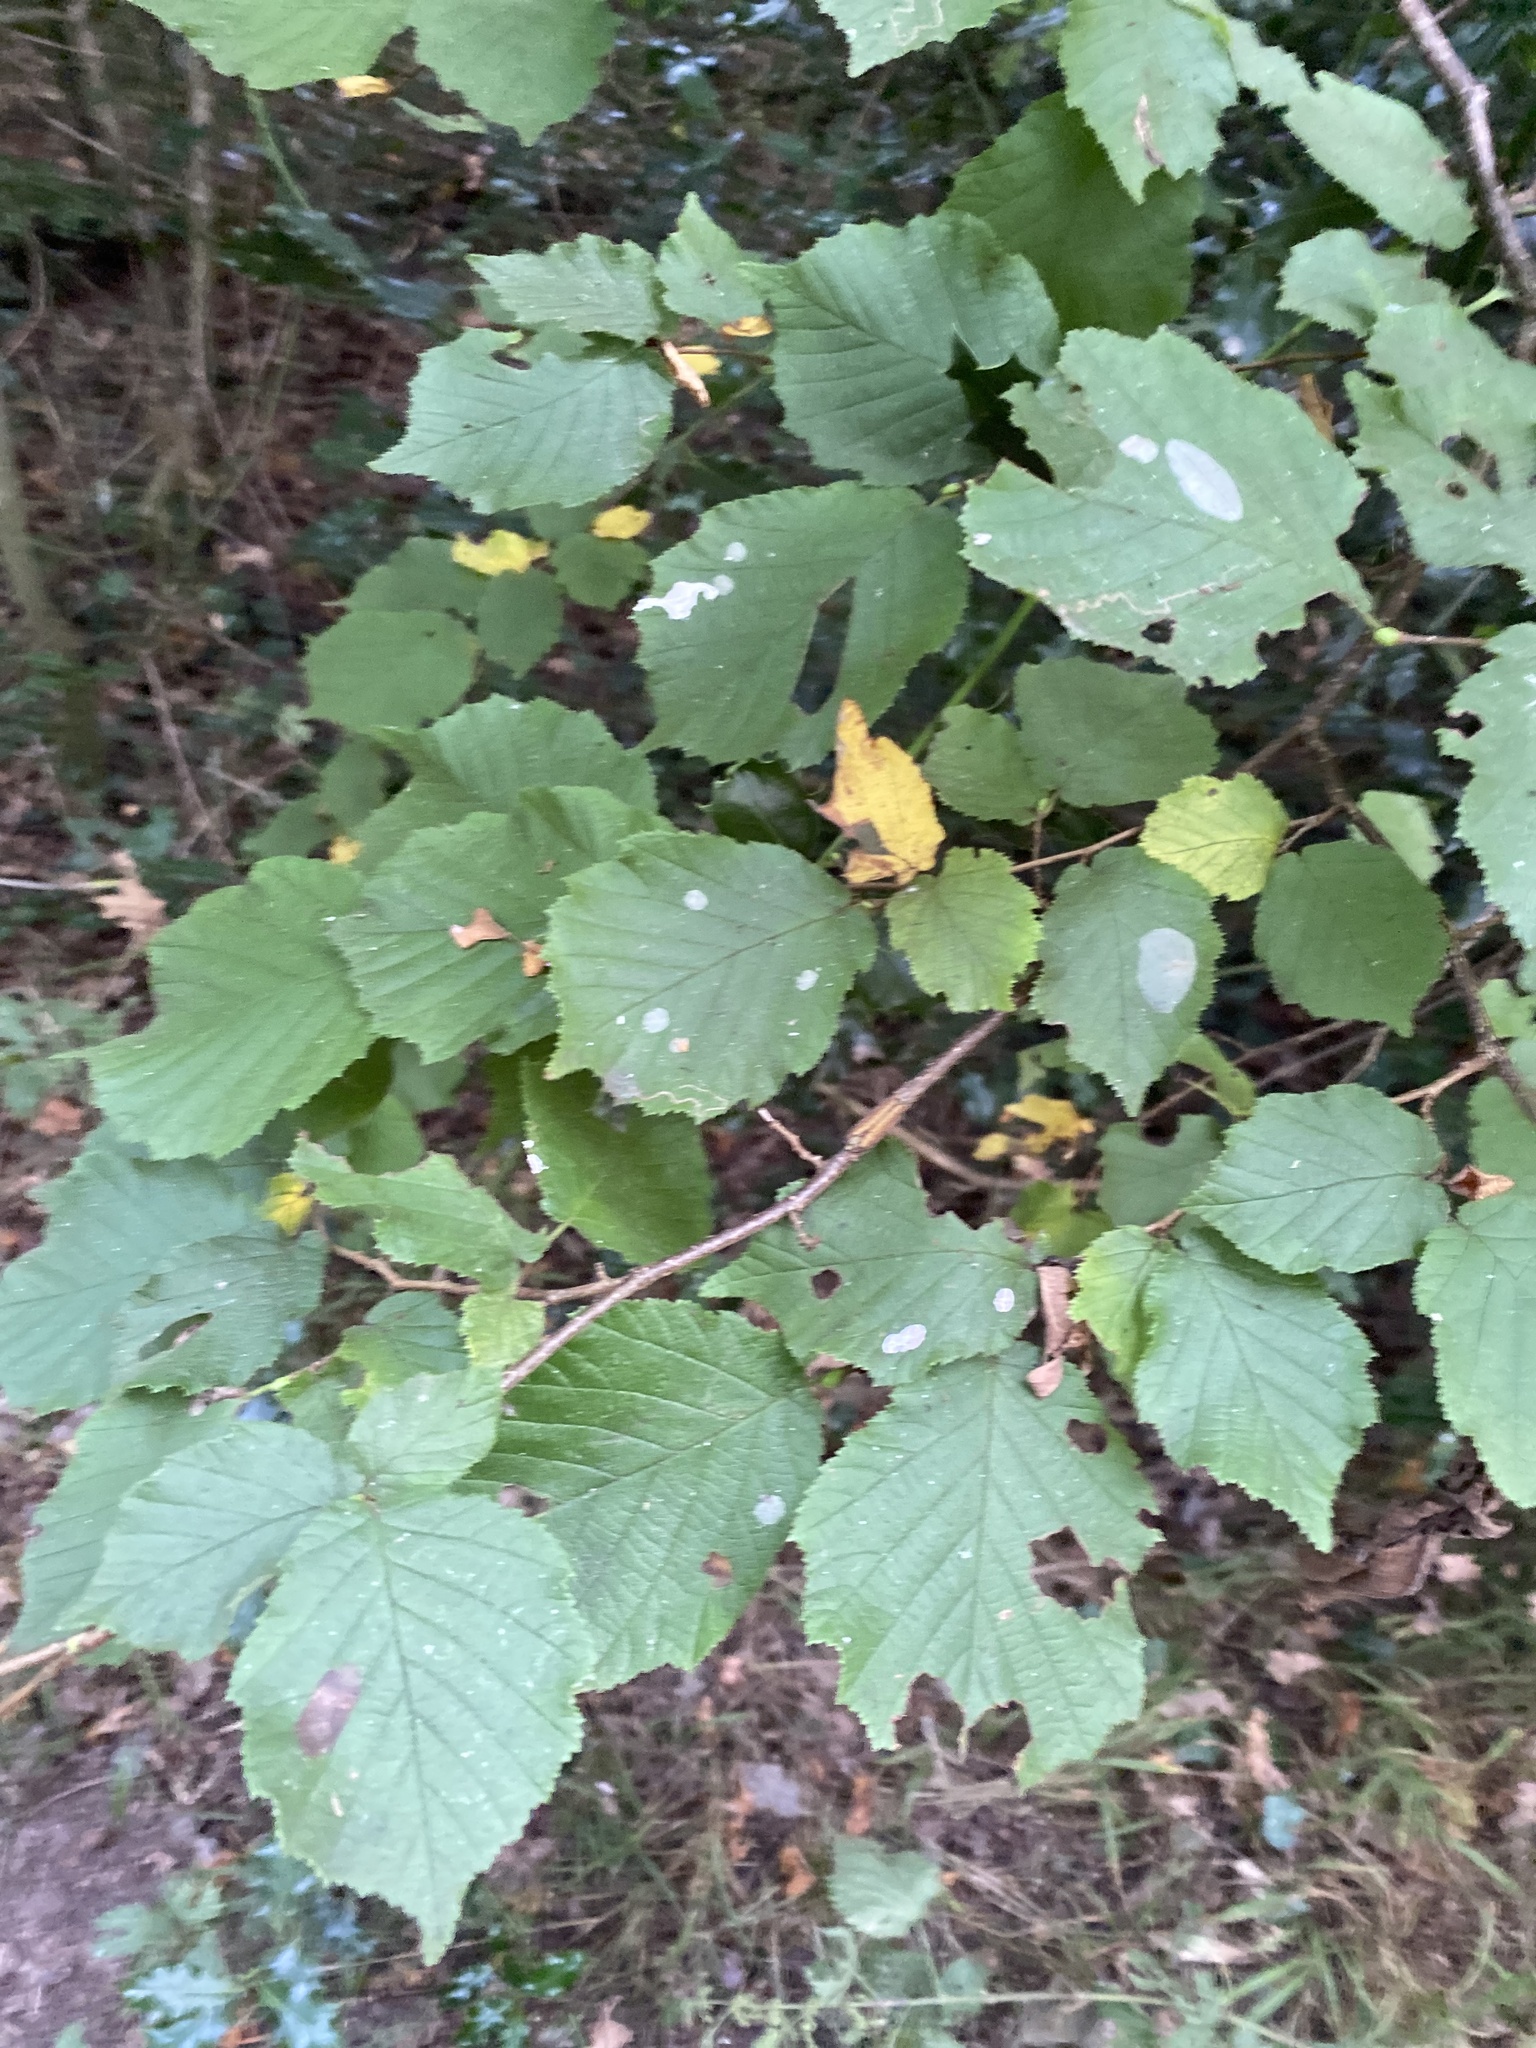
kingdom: Plantae
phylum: Tracheophyta
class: Magnoliopsida
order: Fagales
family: Betulaceae
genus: Corylus
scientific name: Corylus avellana
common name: European hazel
